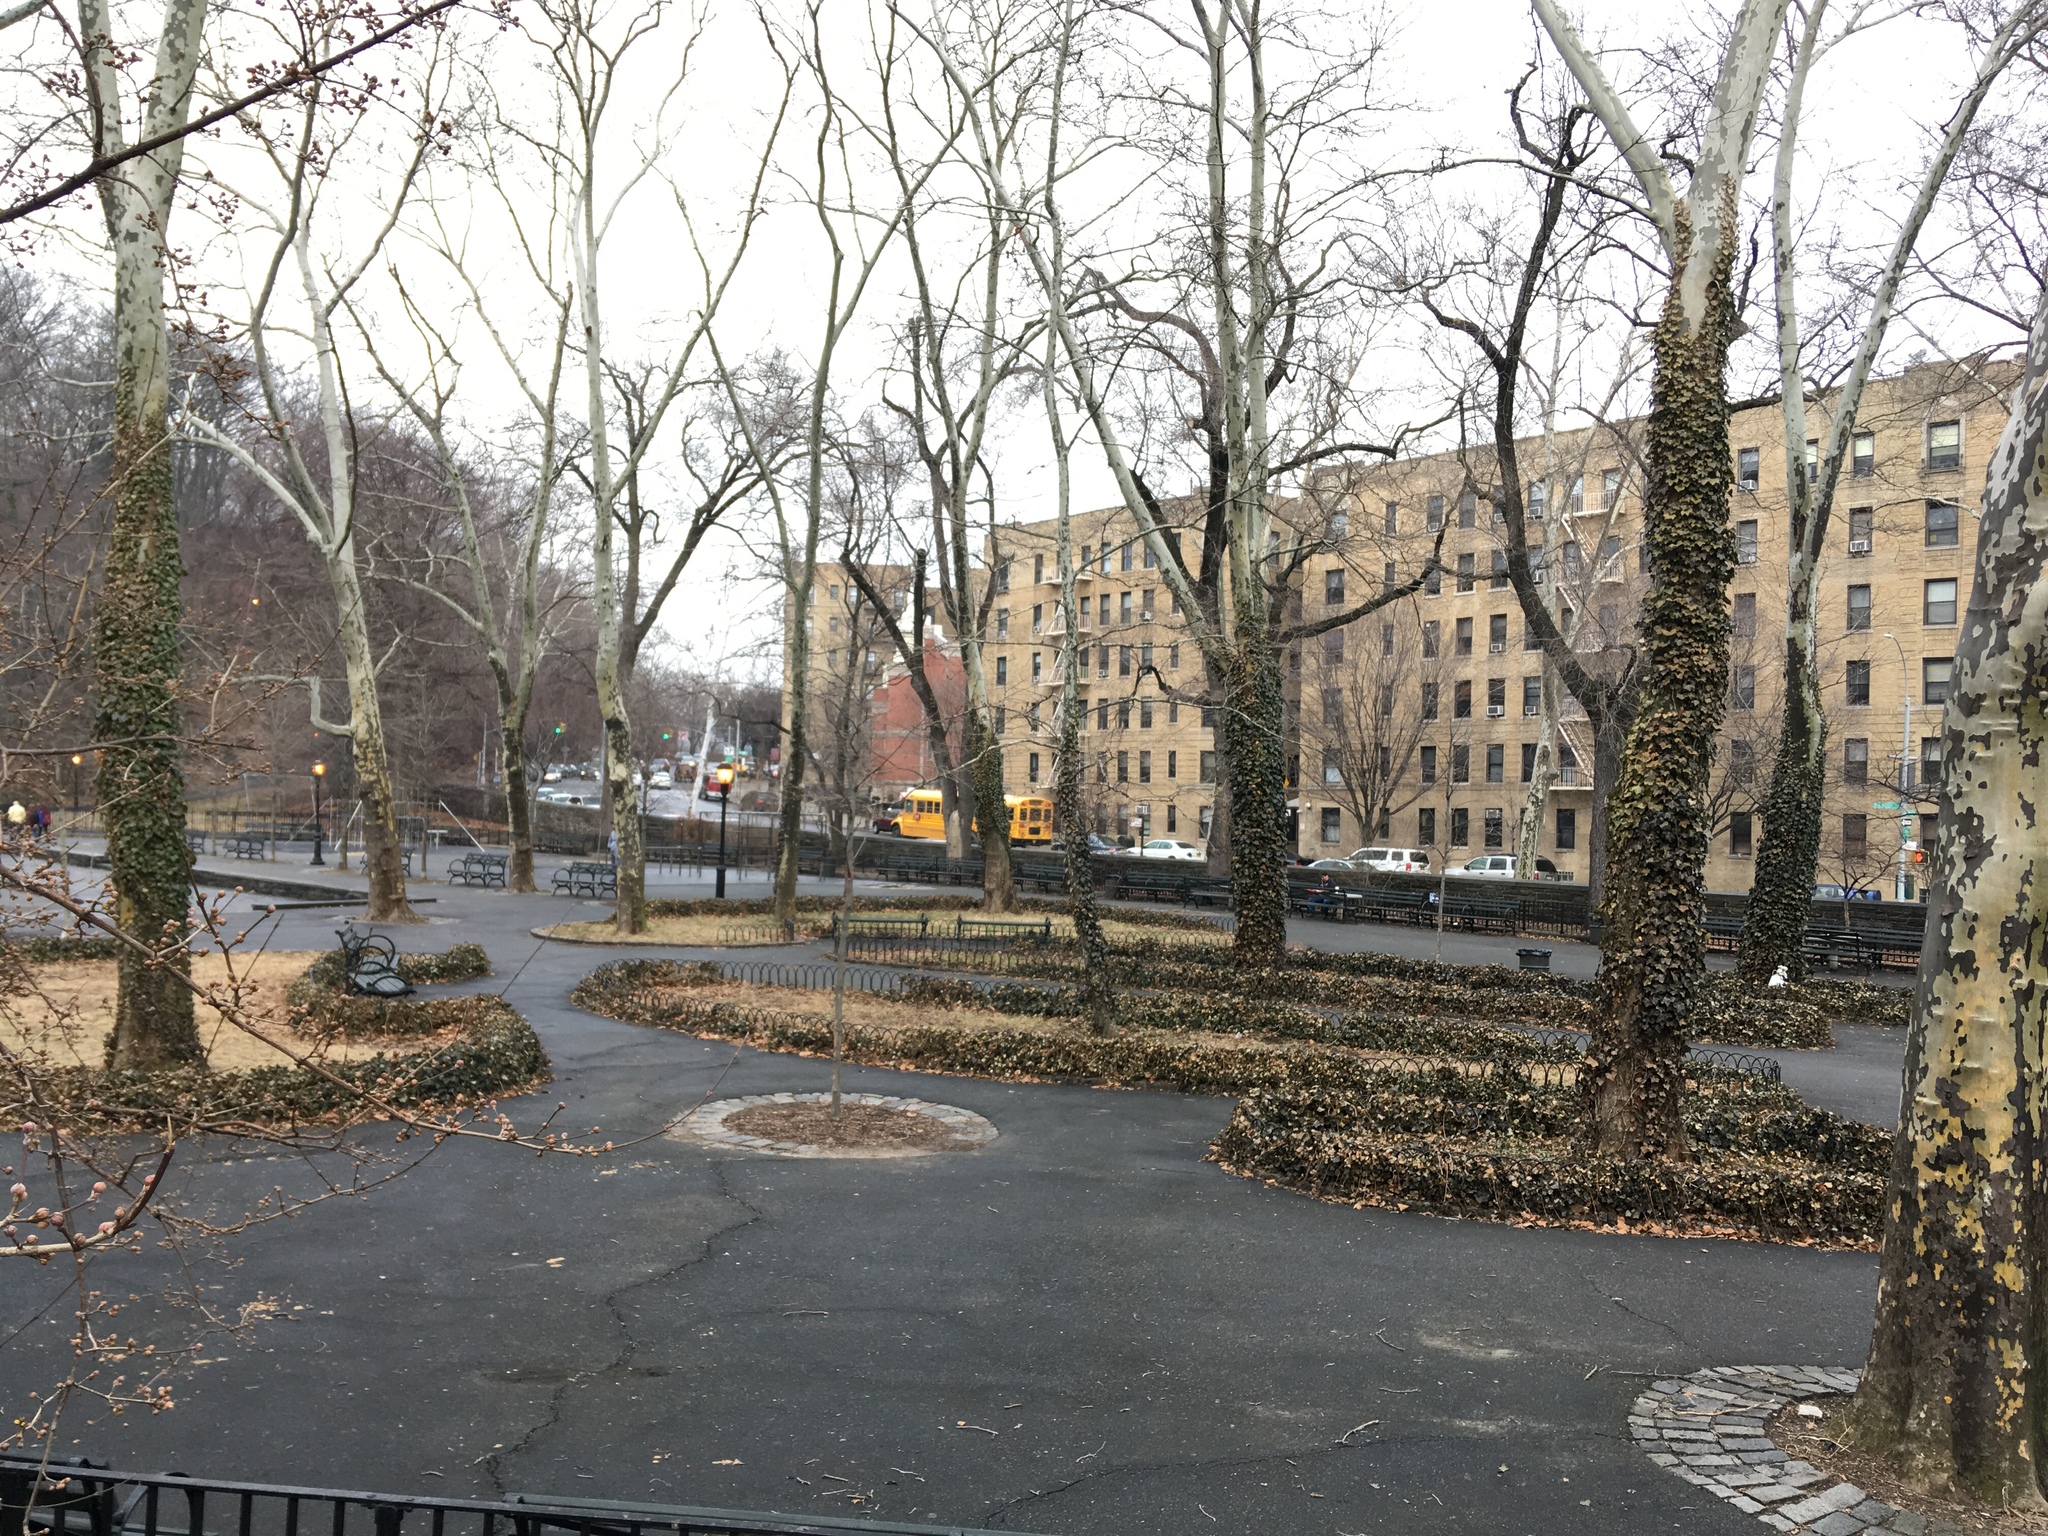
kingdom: Plantae
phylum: Tracheophyta
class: Magnoliopsida
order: Apiales
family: Araliaceae
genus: Hedera
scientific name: Hedera helix
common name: Ivy
